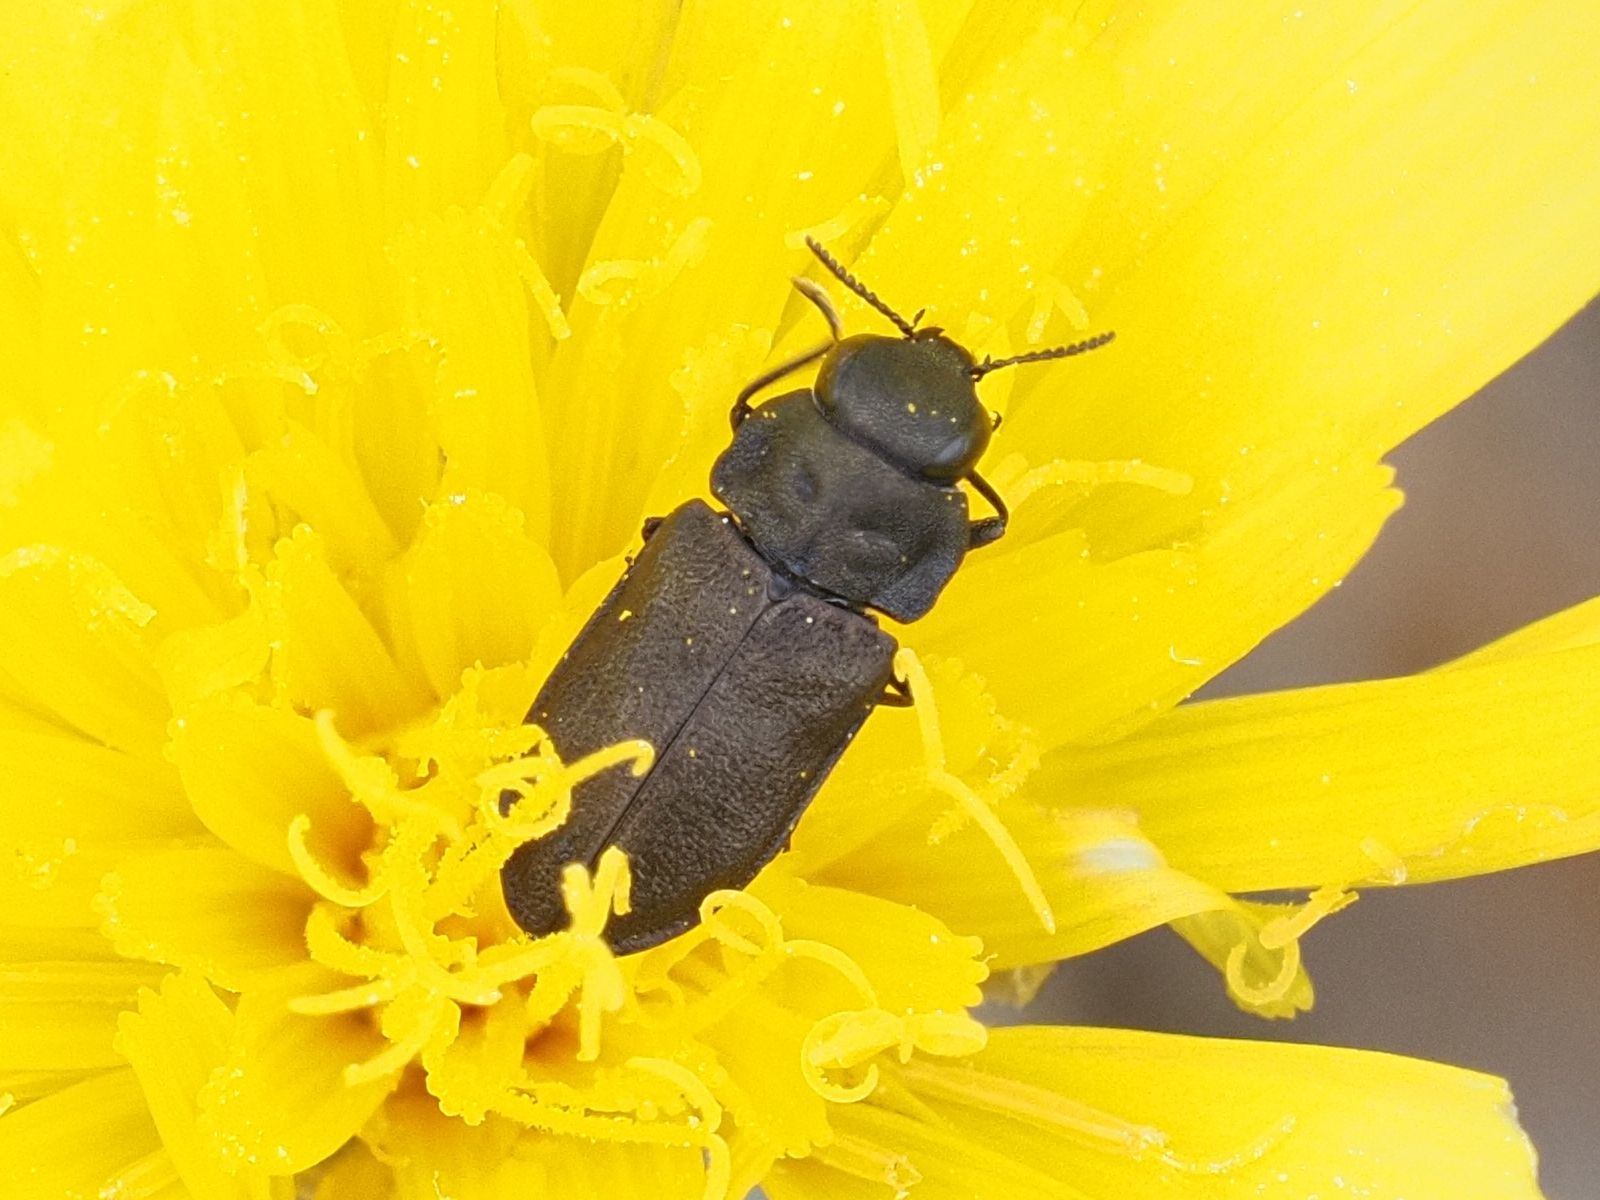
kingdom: Animalia
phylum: Arthropoda
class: Insecta
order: Coleoptera
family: Buprestidae
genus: Anthaxia
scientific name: Anthaxia quadripunctata
